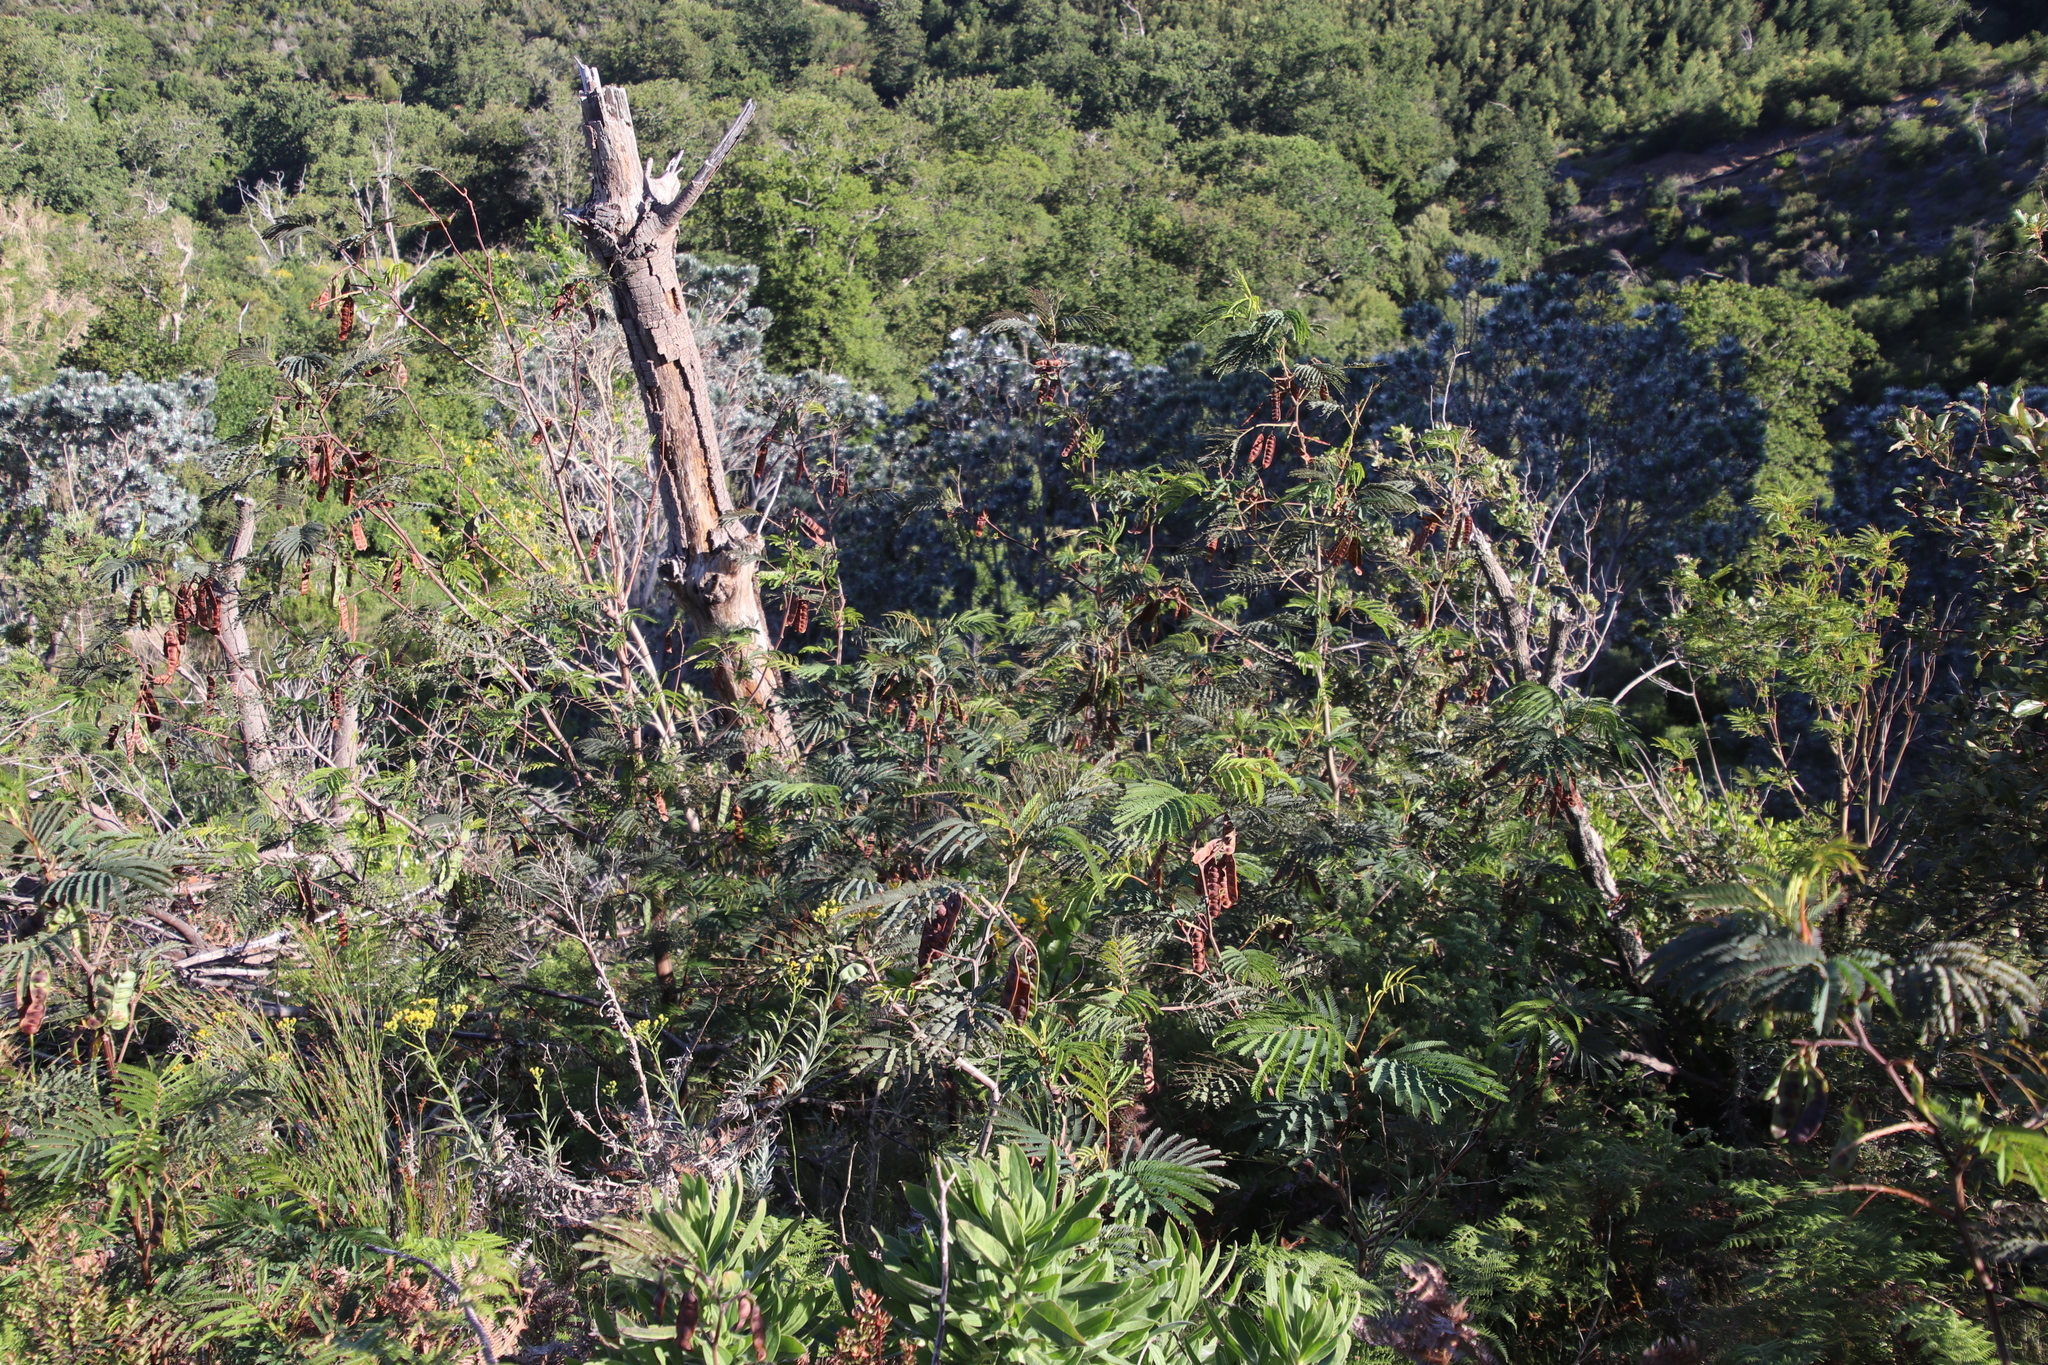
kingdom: Plantae
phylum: Tracheophyta
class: Magnoliopsida
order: Fabales
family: Fabaceae
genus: Paraserianthes
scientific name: Paraserianthes lophantha
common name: Plume albizia
